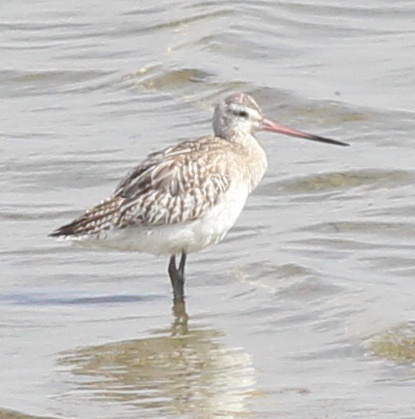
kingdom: Animalia
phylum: Chordata
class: Aves
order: Charadriiformes
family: Scolopacidae
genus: Limosa
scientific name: Limosa lapponica
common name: Bar-tailed godwit
